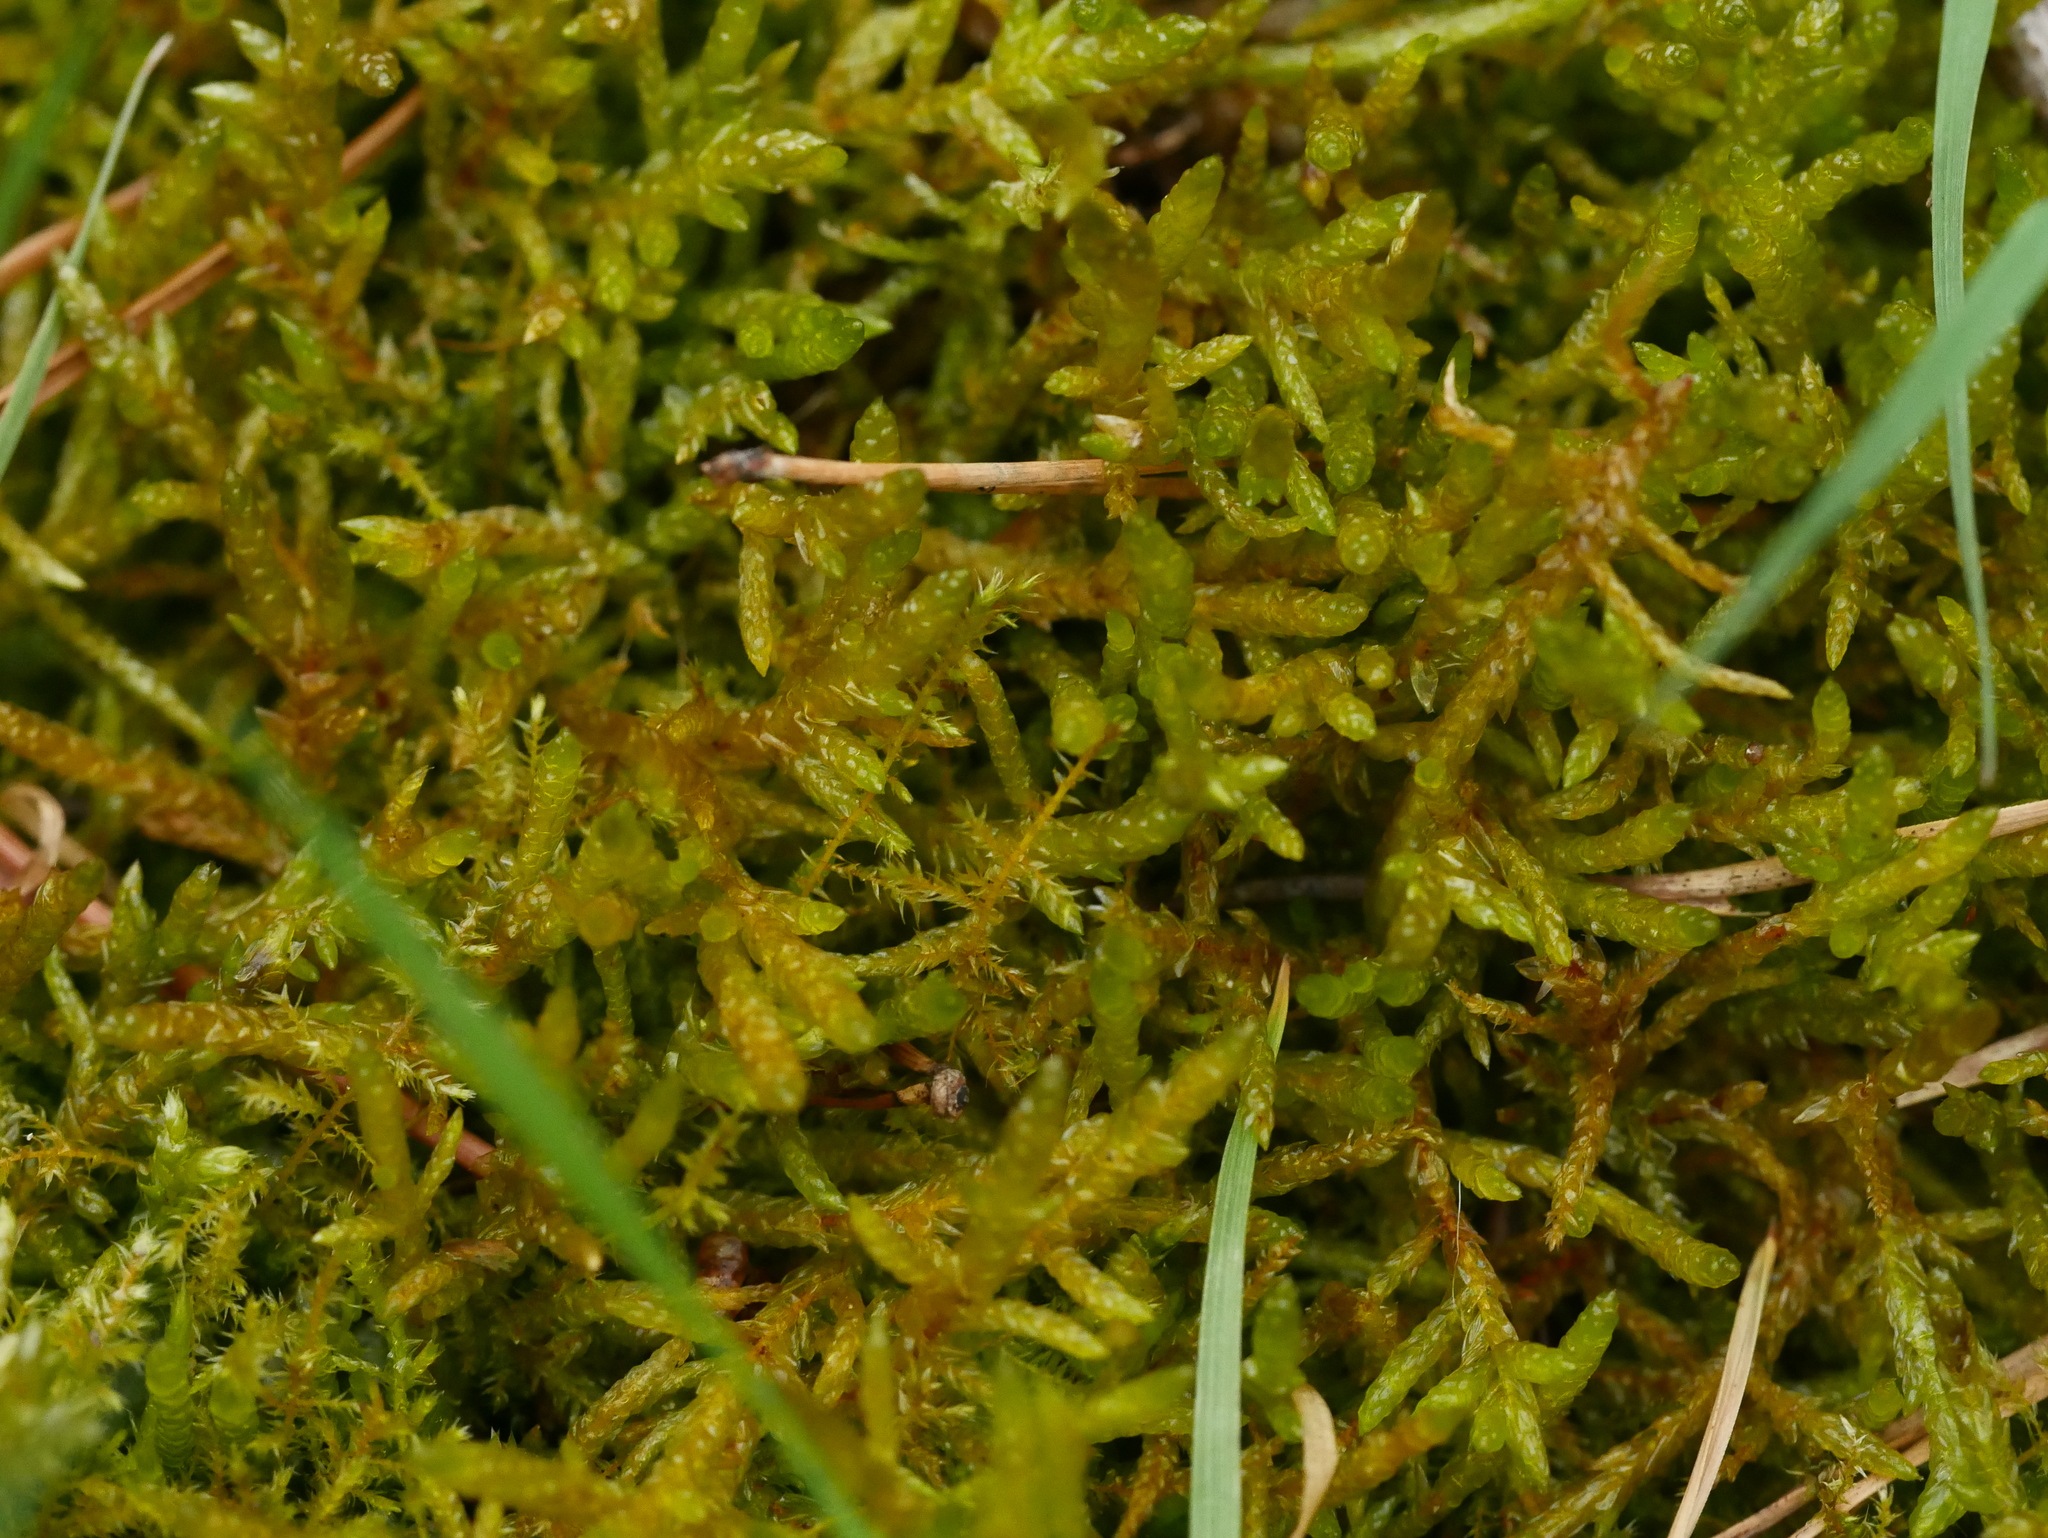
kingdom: Plantae
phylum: Bryophyta
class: Bryopsida
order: Hypnales
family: Brachytheciaceae
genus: Pseudoscleropodium
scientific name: Pseudoscleropodium purum
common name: Neat feather-moss
